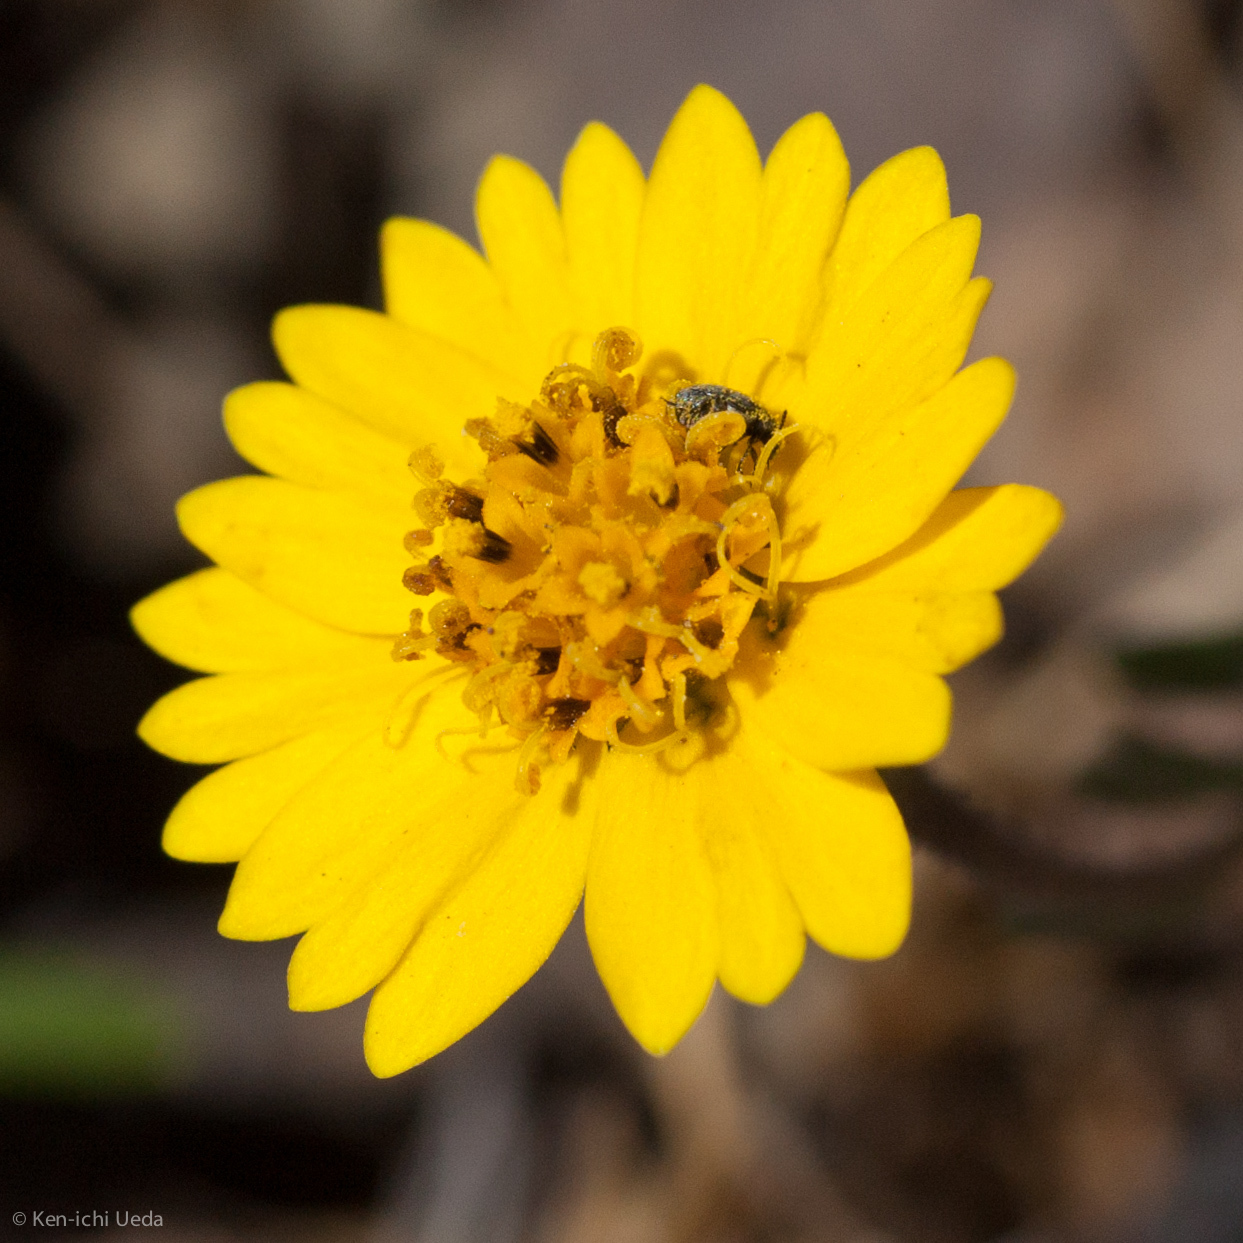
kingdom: Plantae
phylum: Tracheophyta
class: Magnoliopsida
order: Asterales
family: Asteraceae
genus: Layia
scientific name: Layia platyglossa
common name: Tidy-tips
